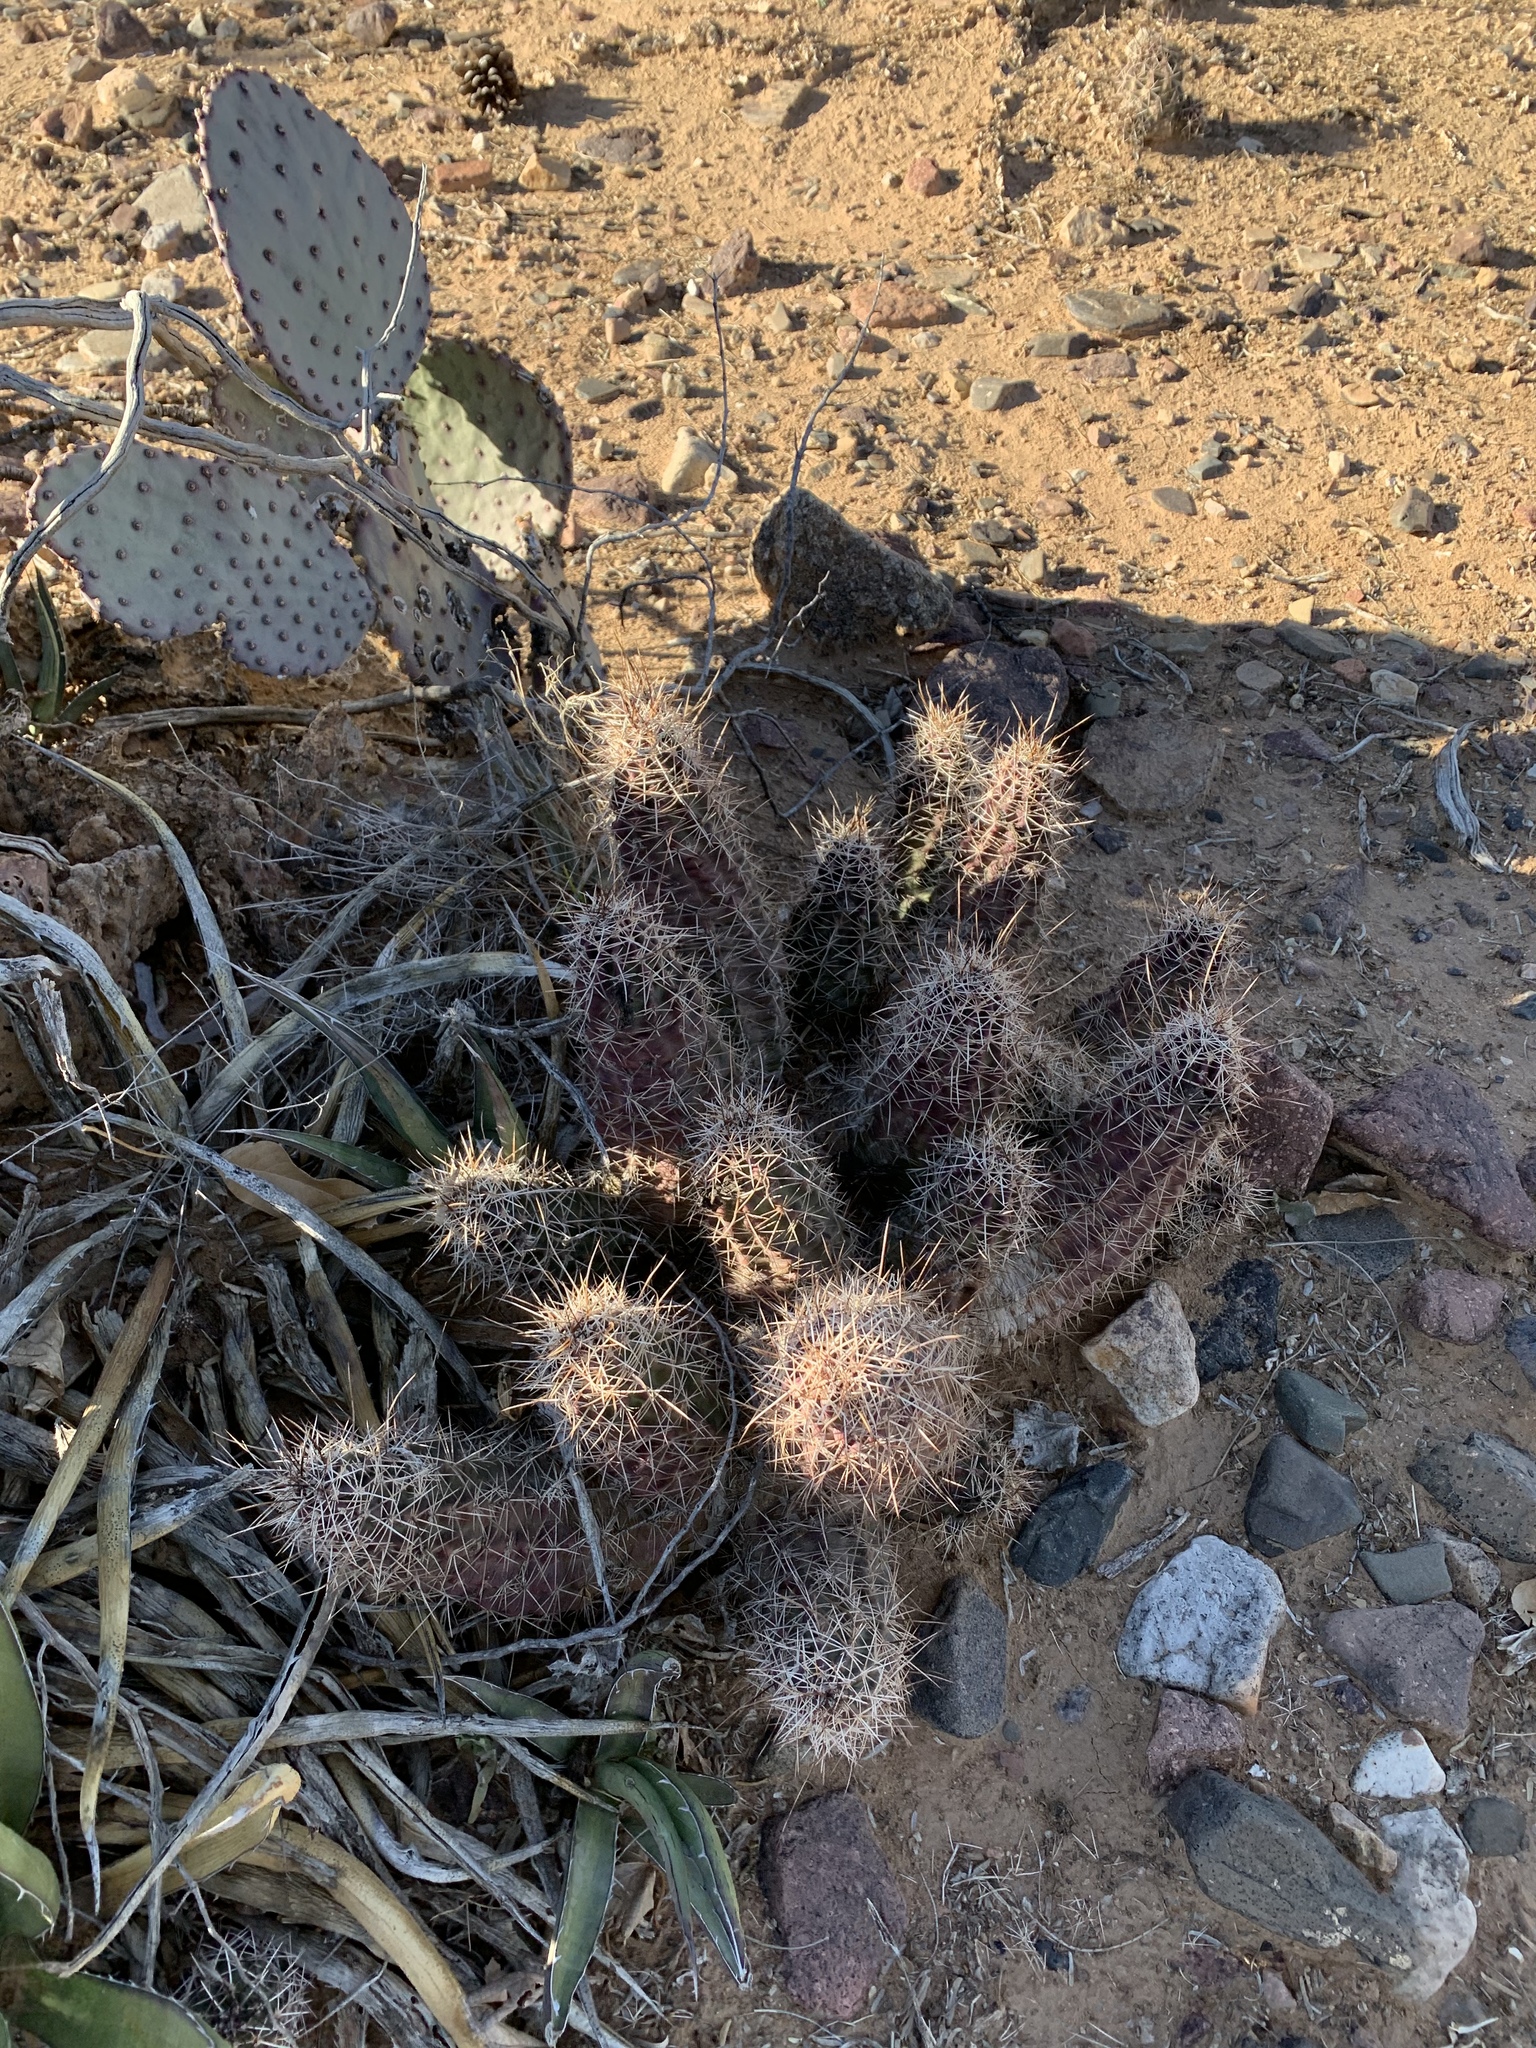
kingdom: Plantae
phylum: Tracheophyta
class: Magnoliopsida
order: Caryophyllales
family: Cactaceae
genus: Echinocereus
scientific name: Echinocereus fendleri
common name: Fendler's hedgehog cactus
